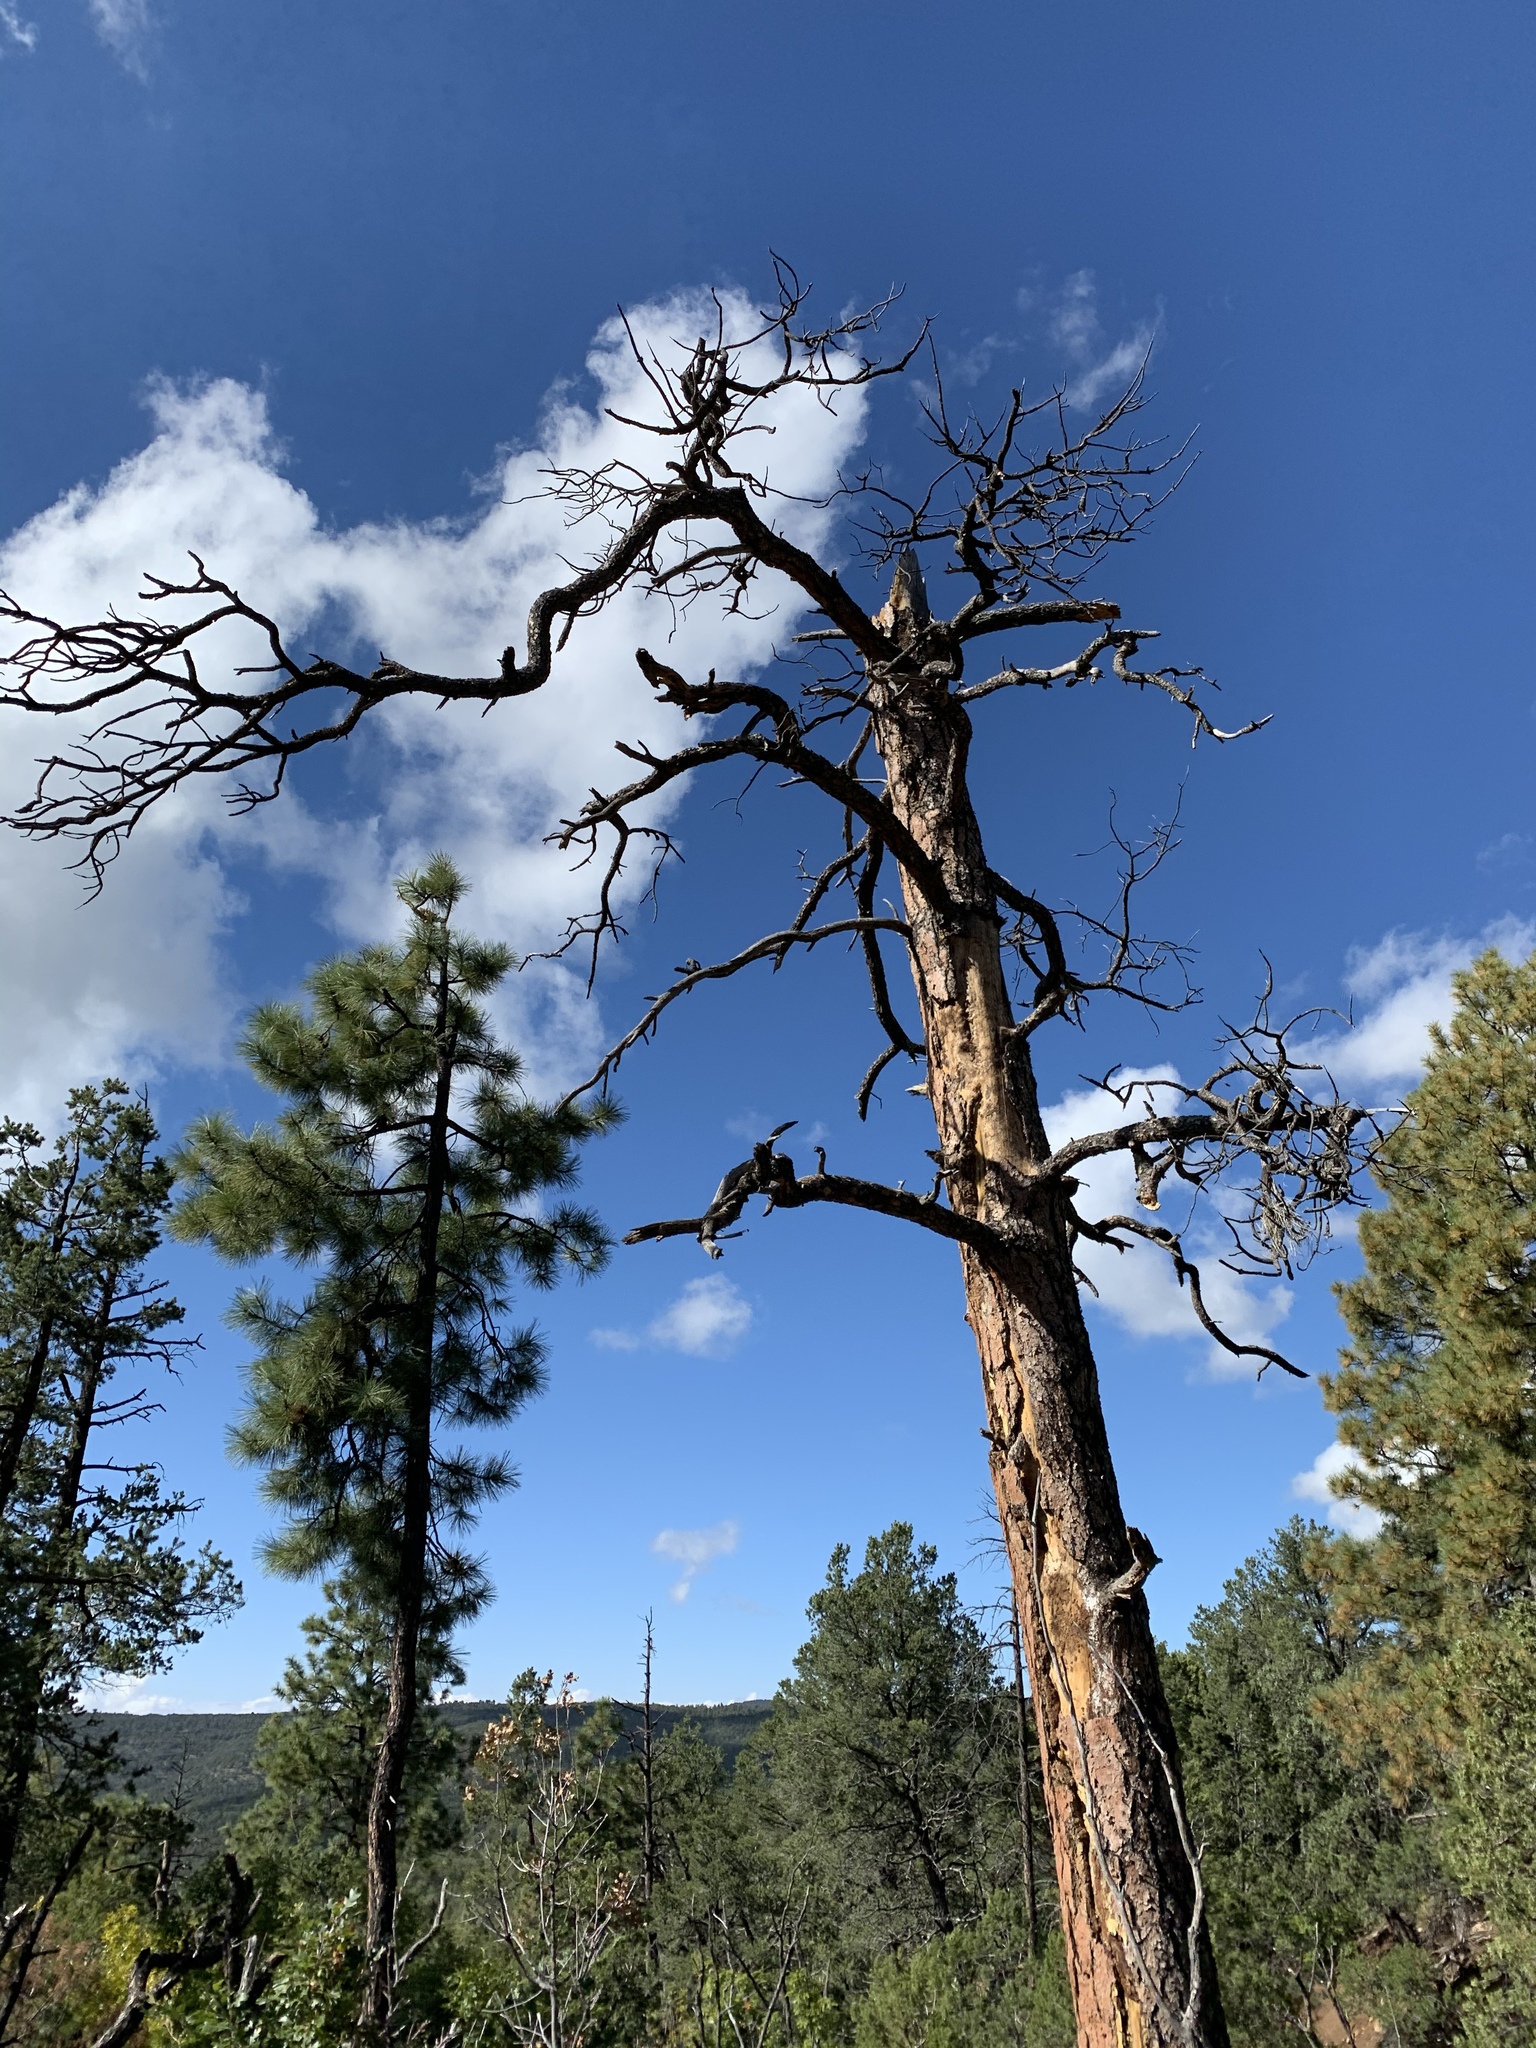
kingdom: Plantae
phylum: Tracheophyta
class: Pinopsida
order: Pinales
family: Pinaceae
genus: Pinus
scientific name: Pinus ponderosa
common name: Western yellow-pine
